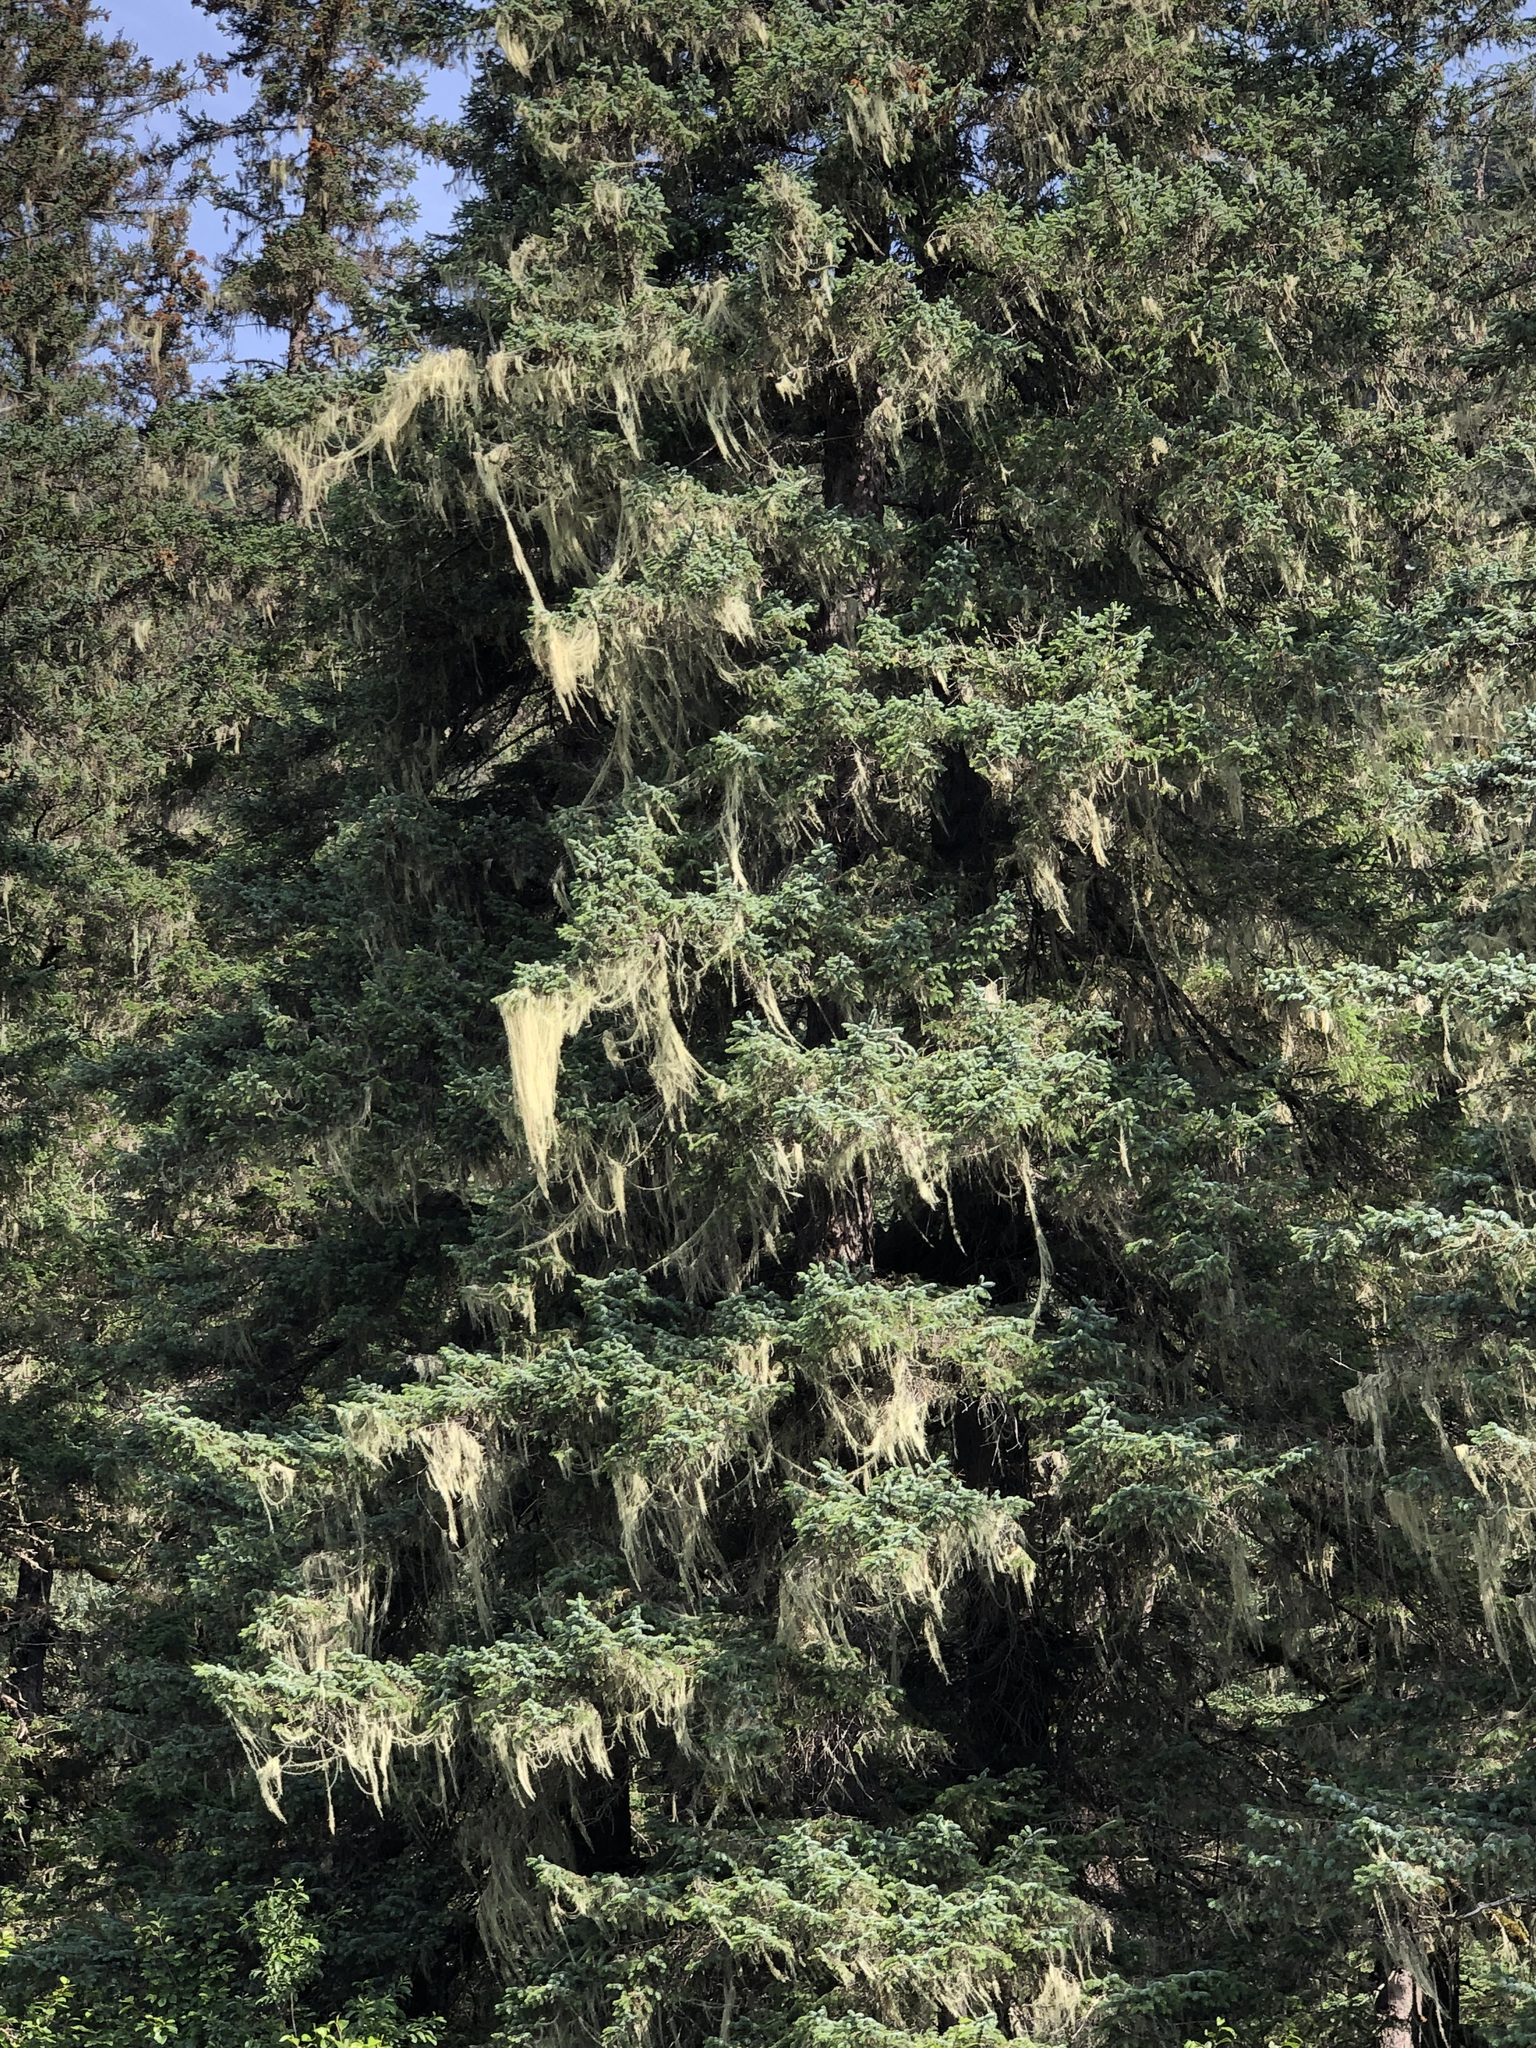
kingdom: Fungi
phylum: Ascomycota
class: Lecanoromycetes
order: Lecanorales
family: Parmeliaceae
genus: Dolichousnea
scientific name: Dolichousnea longissima
